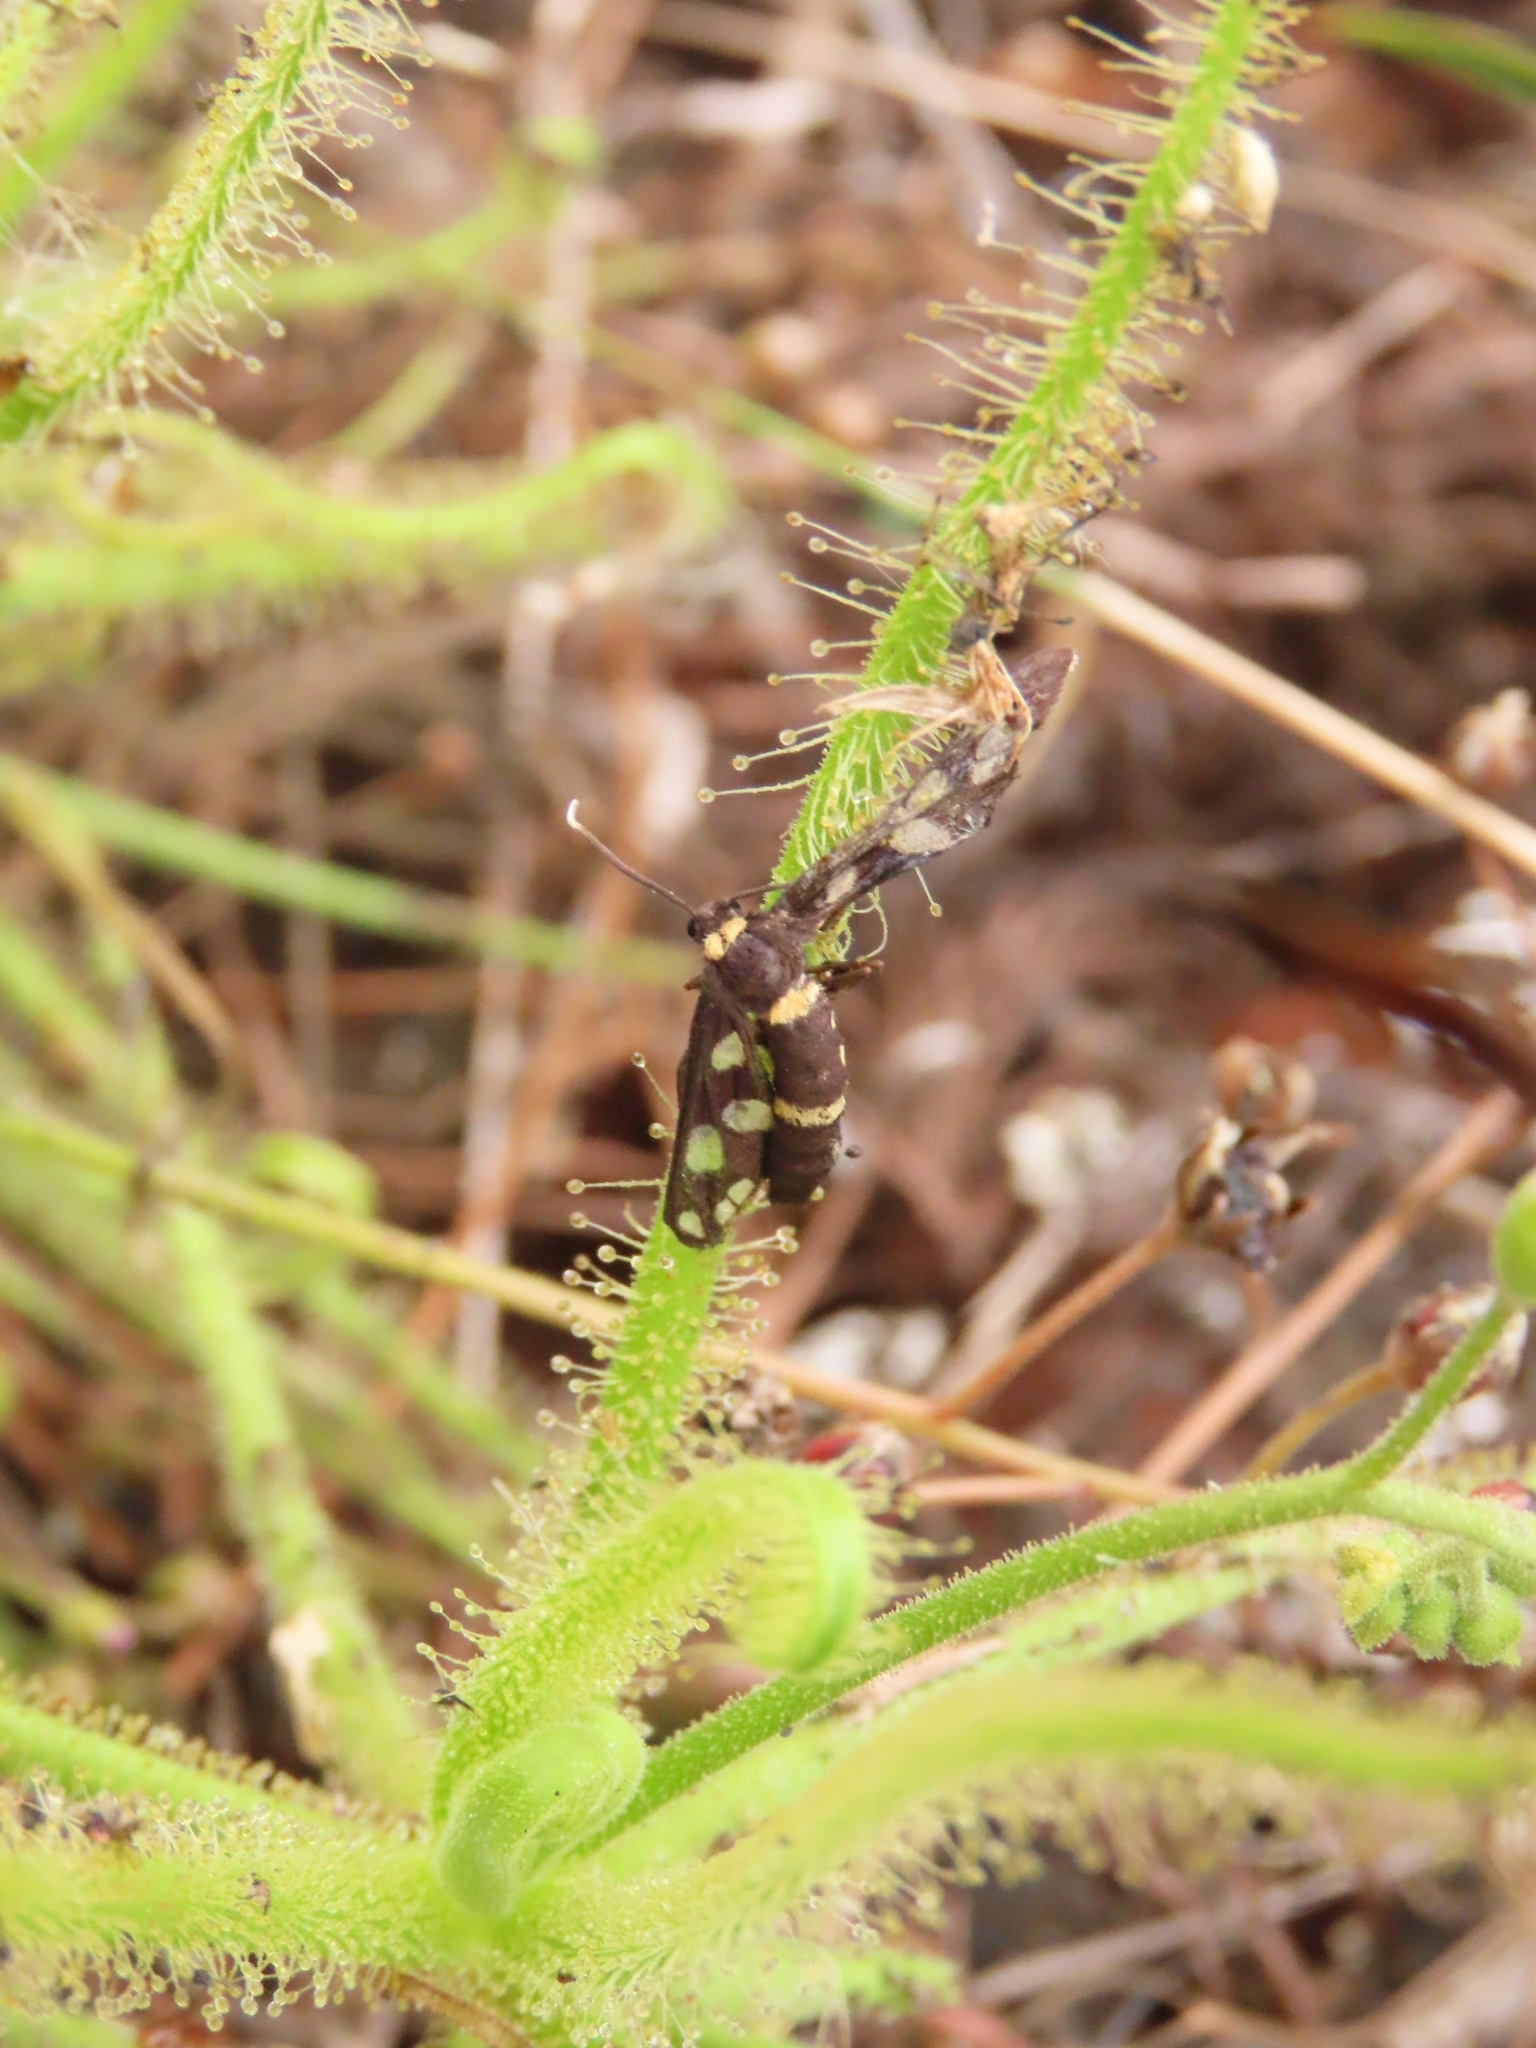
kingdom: Plantae
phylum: Tracheophyta
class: Magnoliopsida
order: Caryophyllales
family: Droseraceae
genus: Drosera
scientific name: Drosera finlaysoniana
